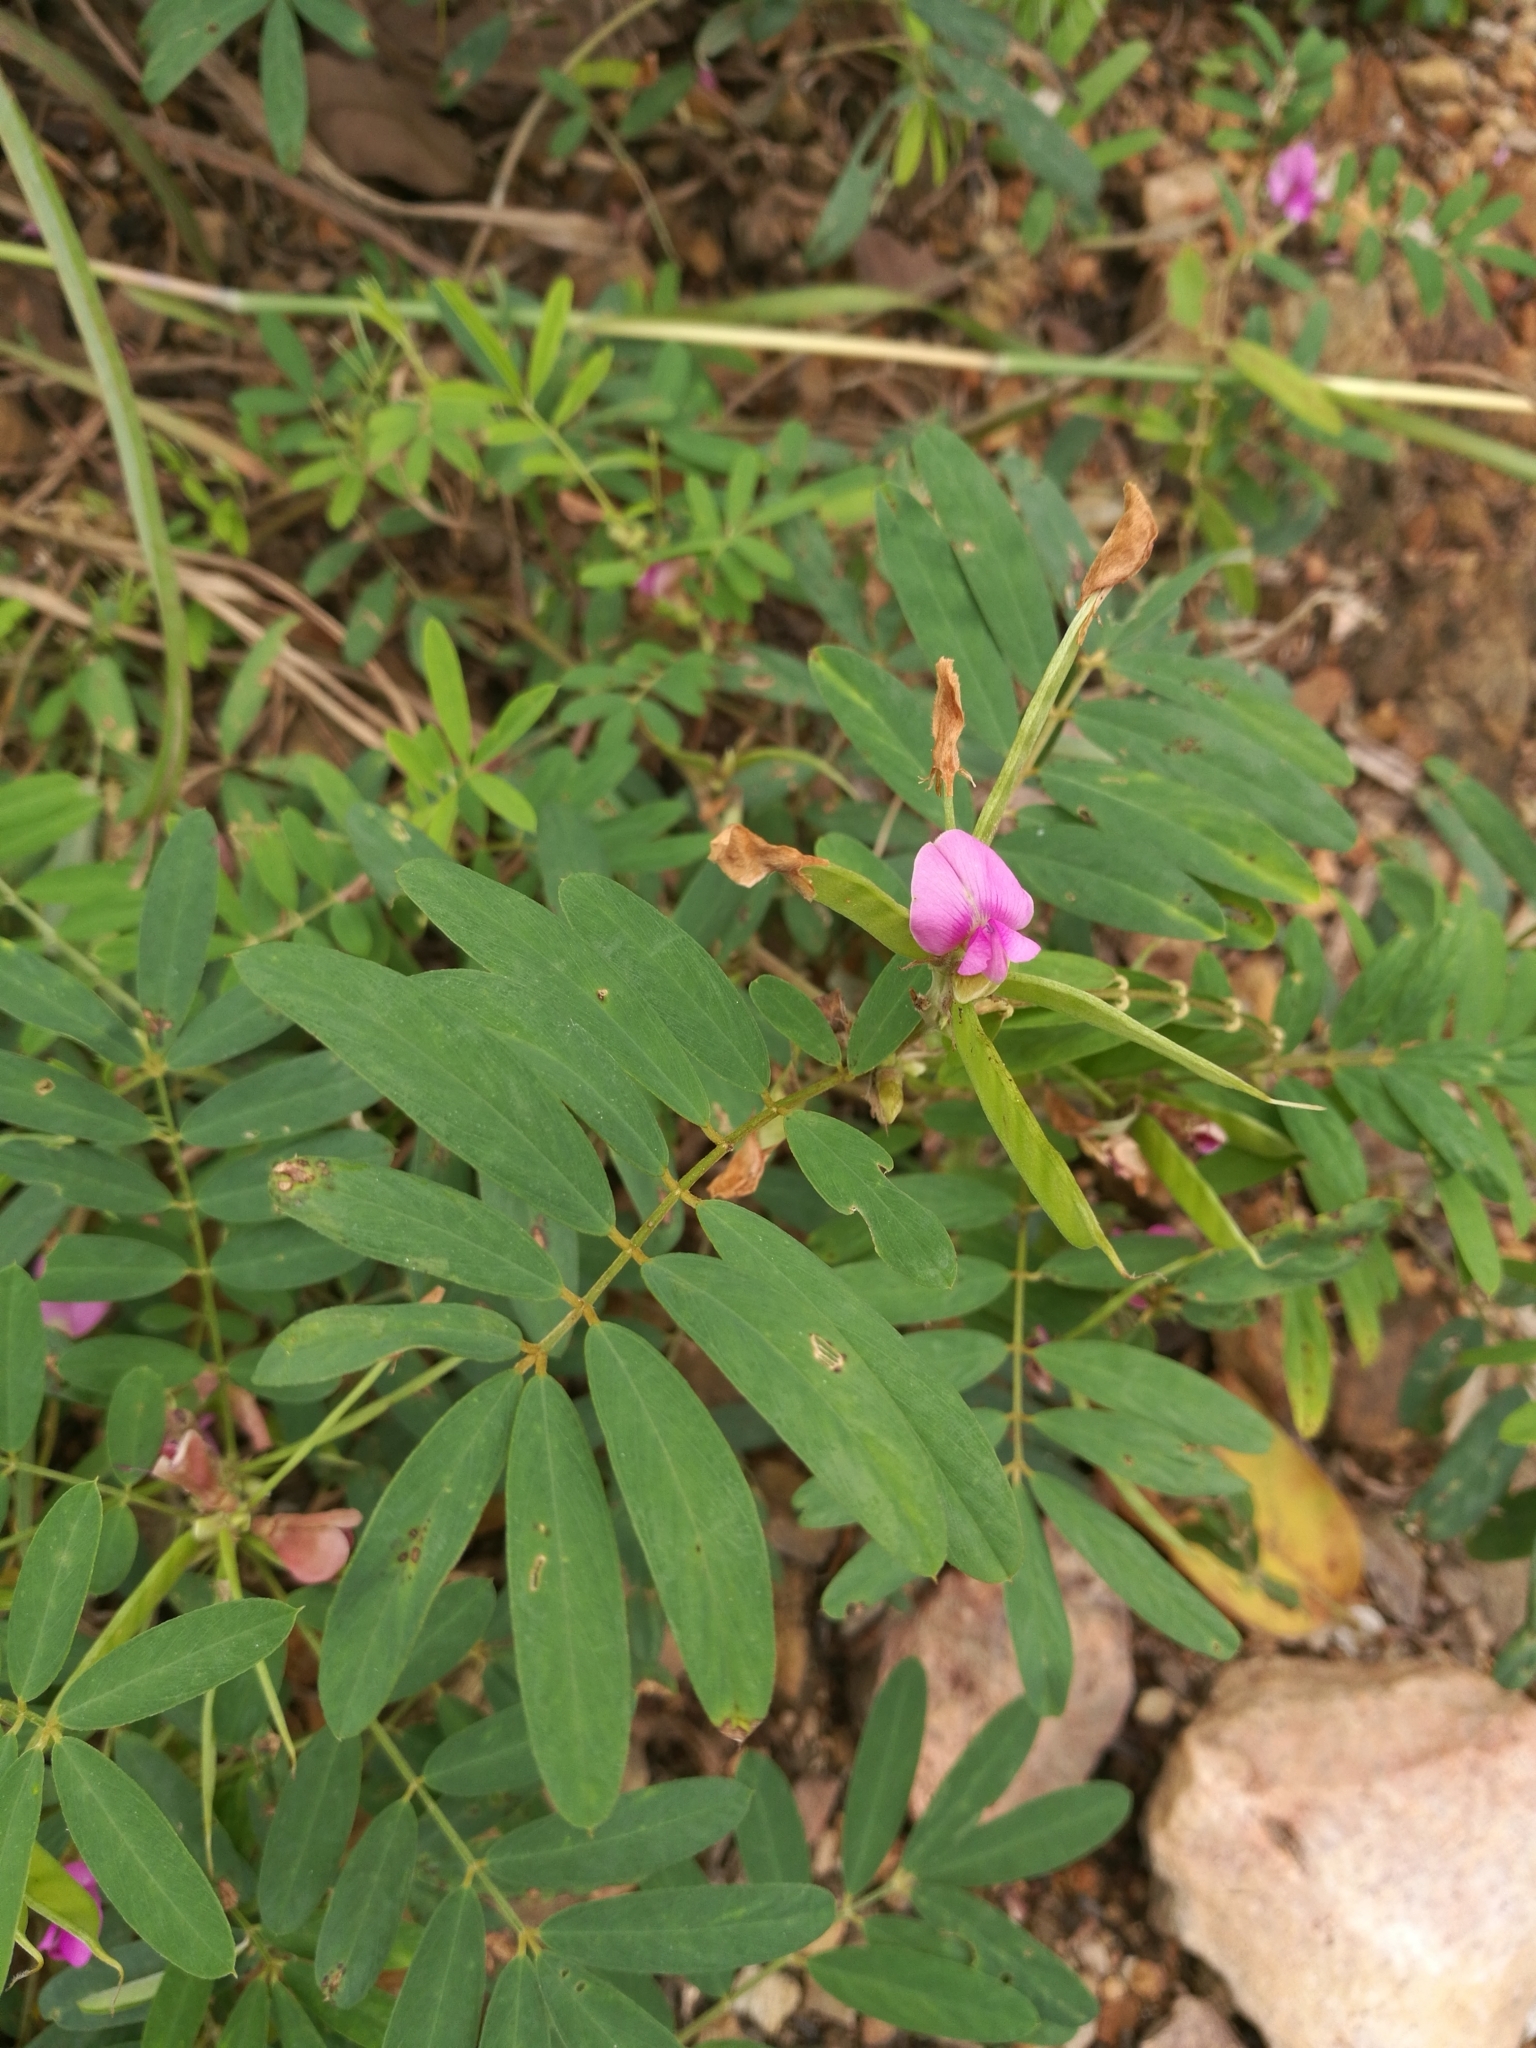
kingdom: Plantae
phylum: Tracheophyta
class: Magnoliopsida
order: Fabales
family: Fabaceae
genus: Tephrosia
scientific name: Tephrosia pedicellata
